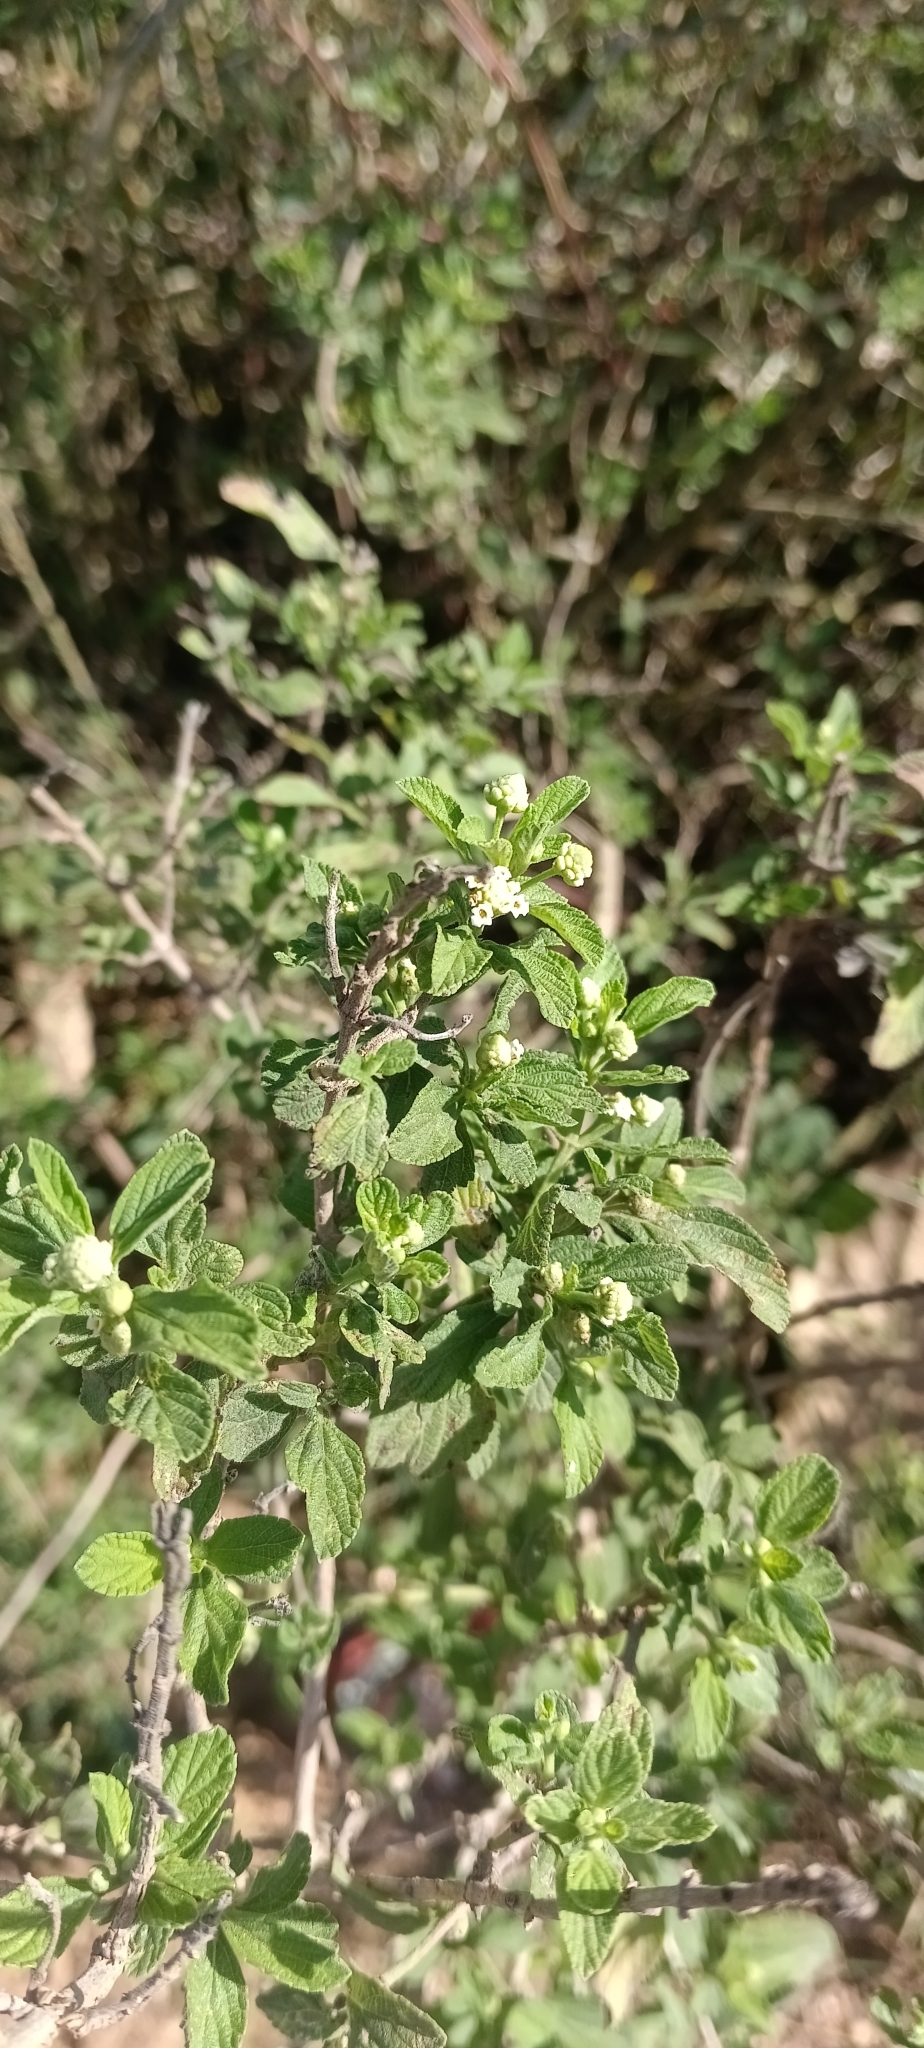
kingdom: Plantae
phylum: Tracheophyta
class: Magnoliopsida
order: Lamiales
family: Verbenaceae
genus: Lippia
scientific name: Lippia javanica
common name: Lemonbush
